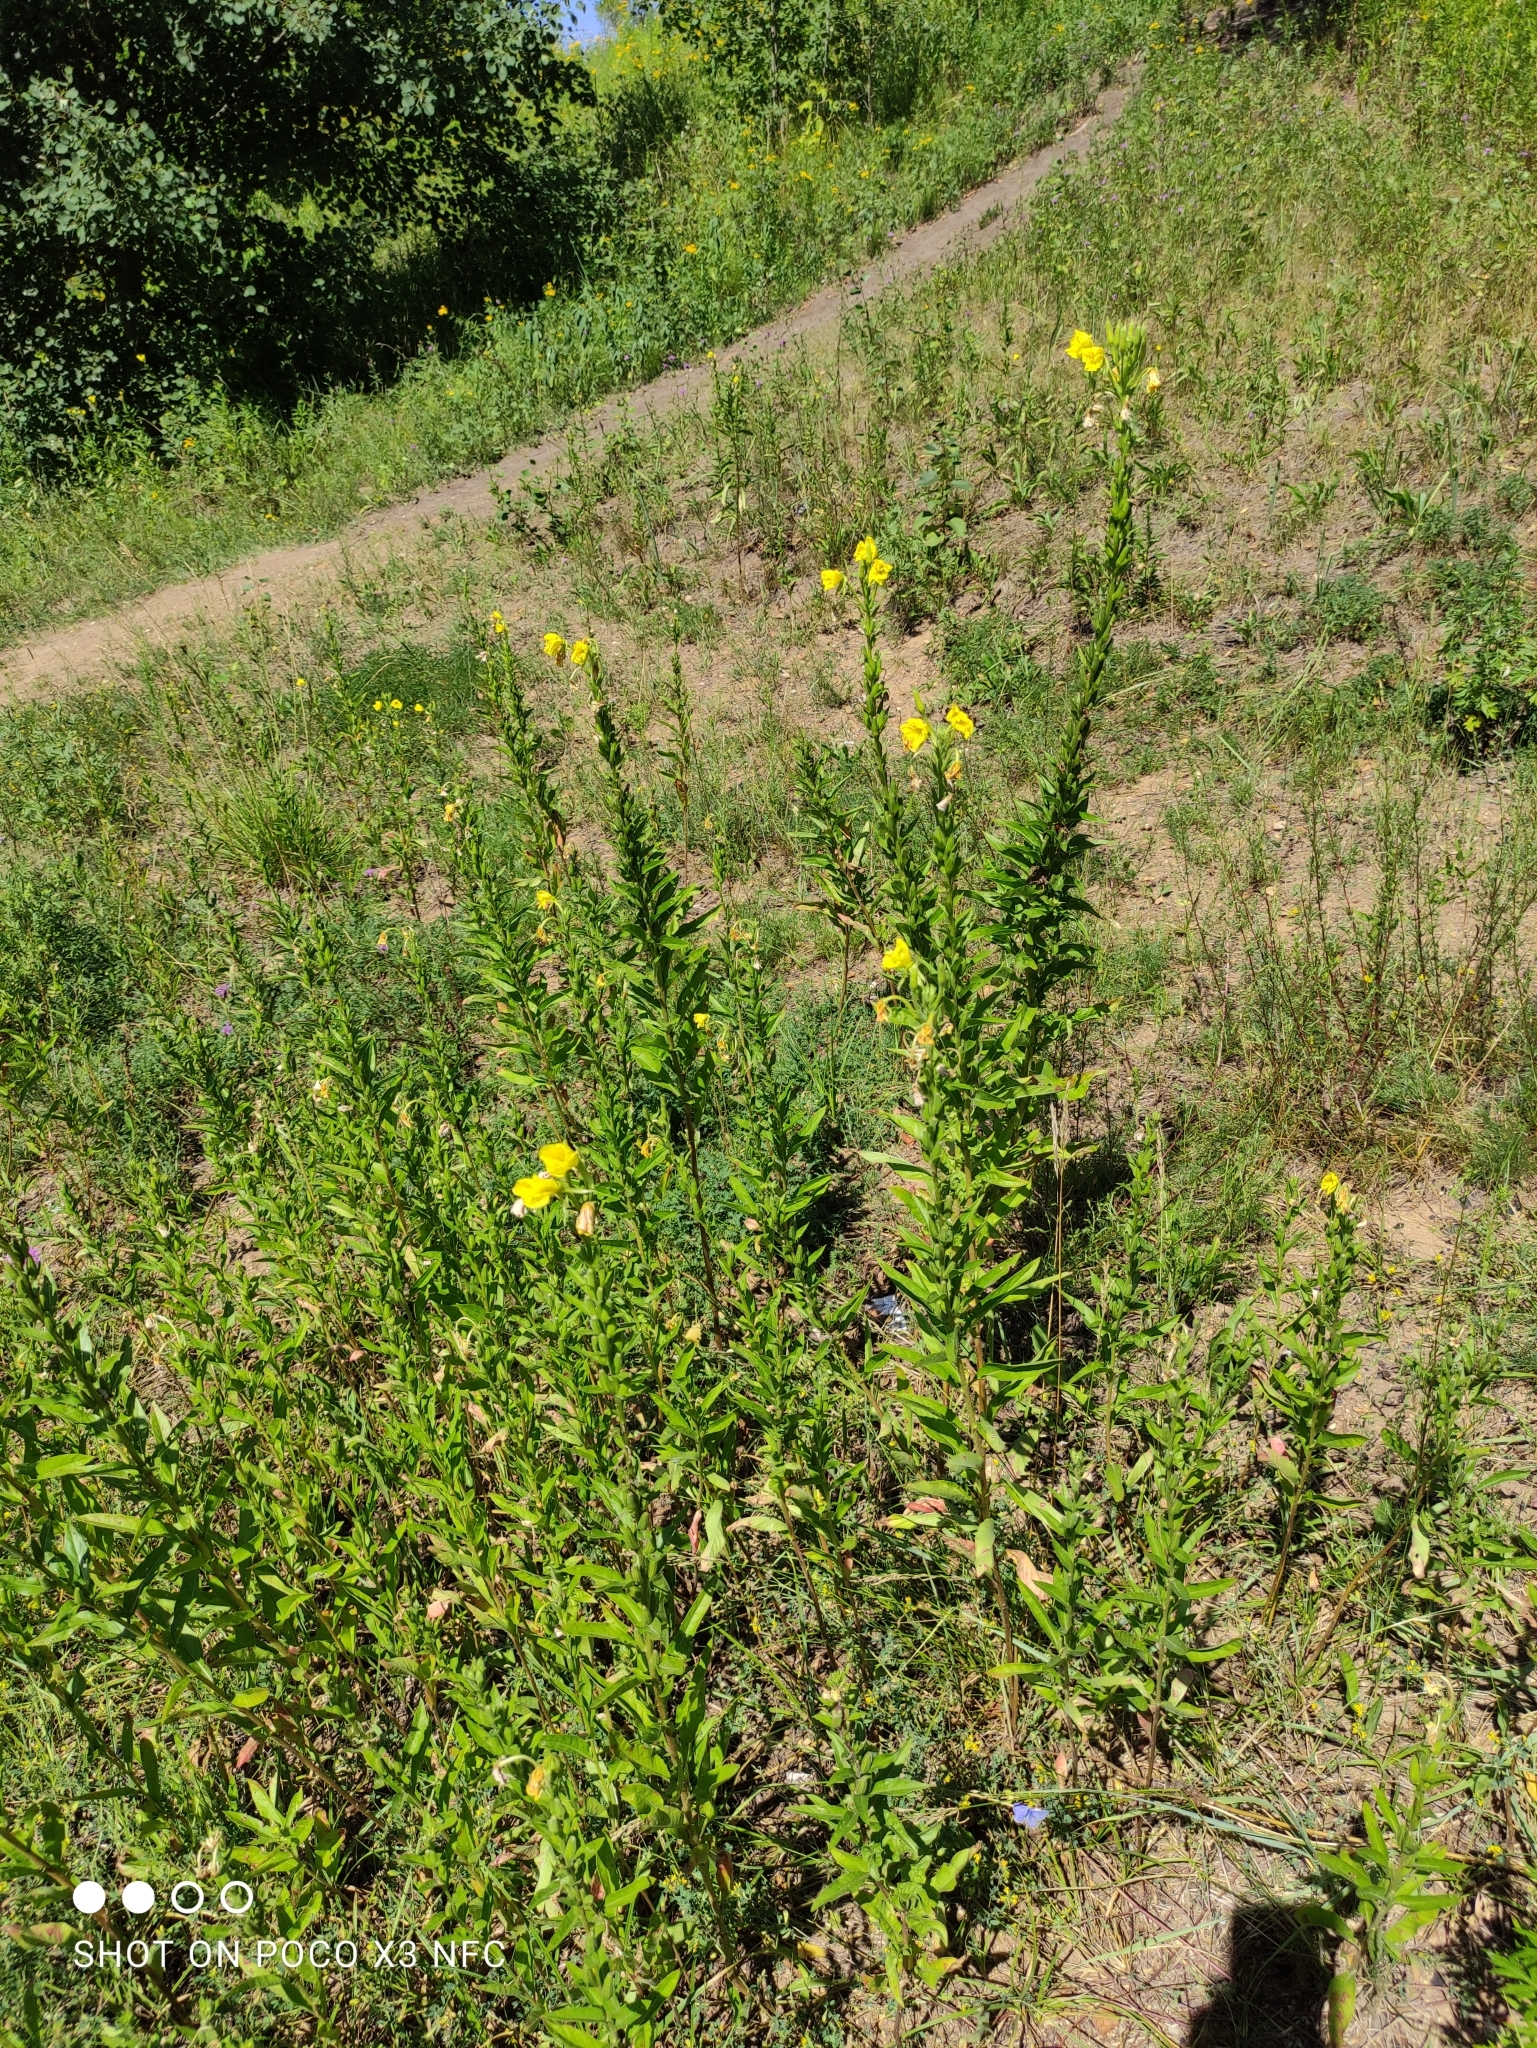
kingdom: Plantae
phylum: Tracheophyta
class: Magnoliopsida
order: Myrtales
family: Onagraceae
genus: Oenothera
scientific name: Oenothera biennis
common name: Common evening-primrose
